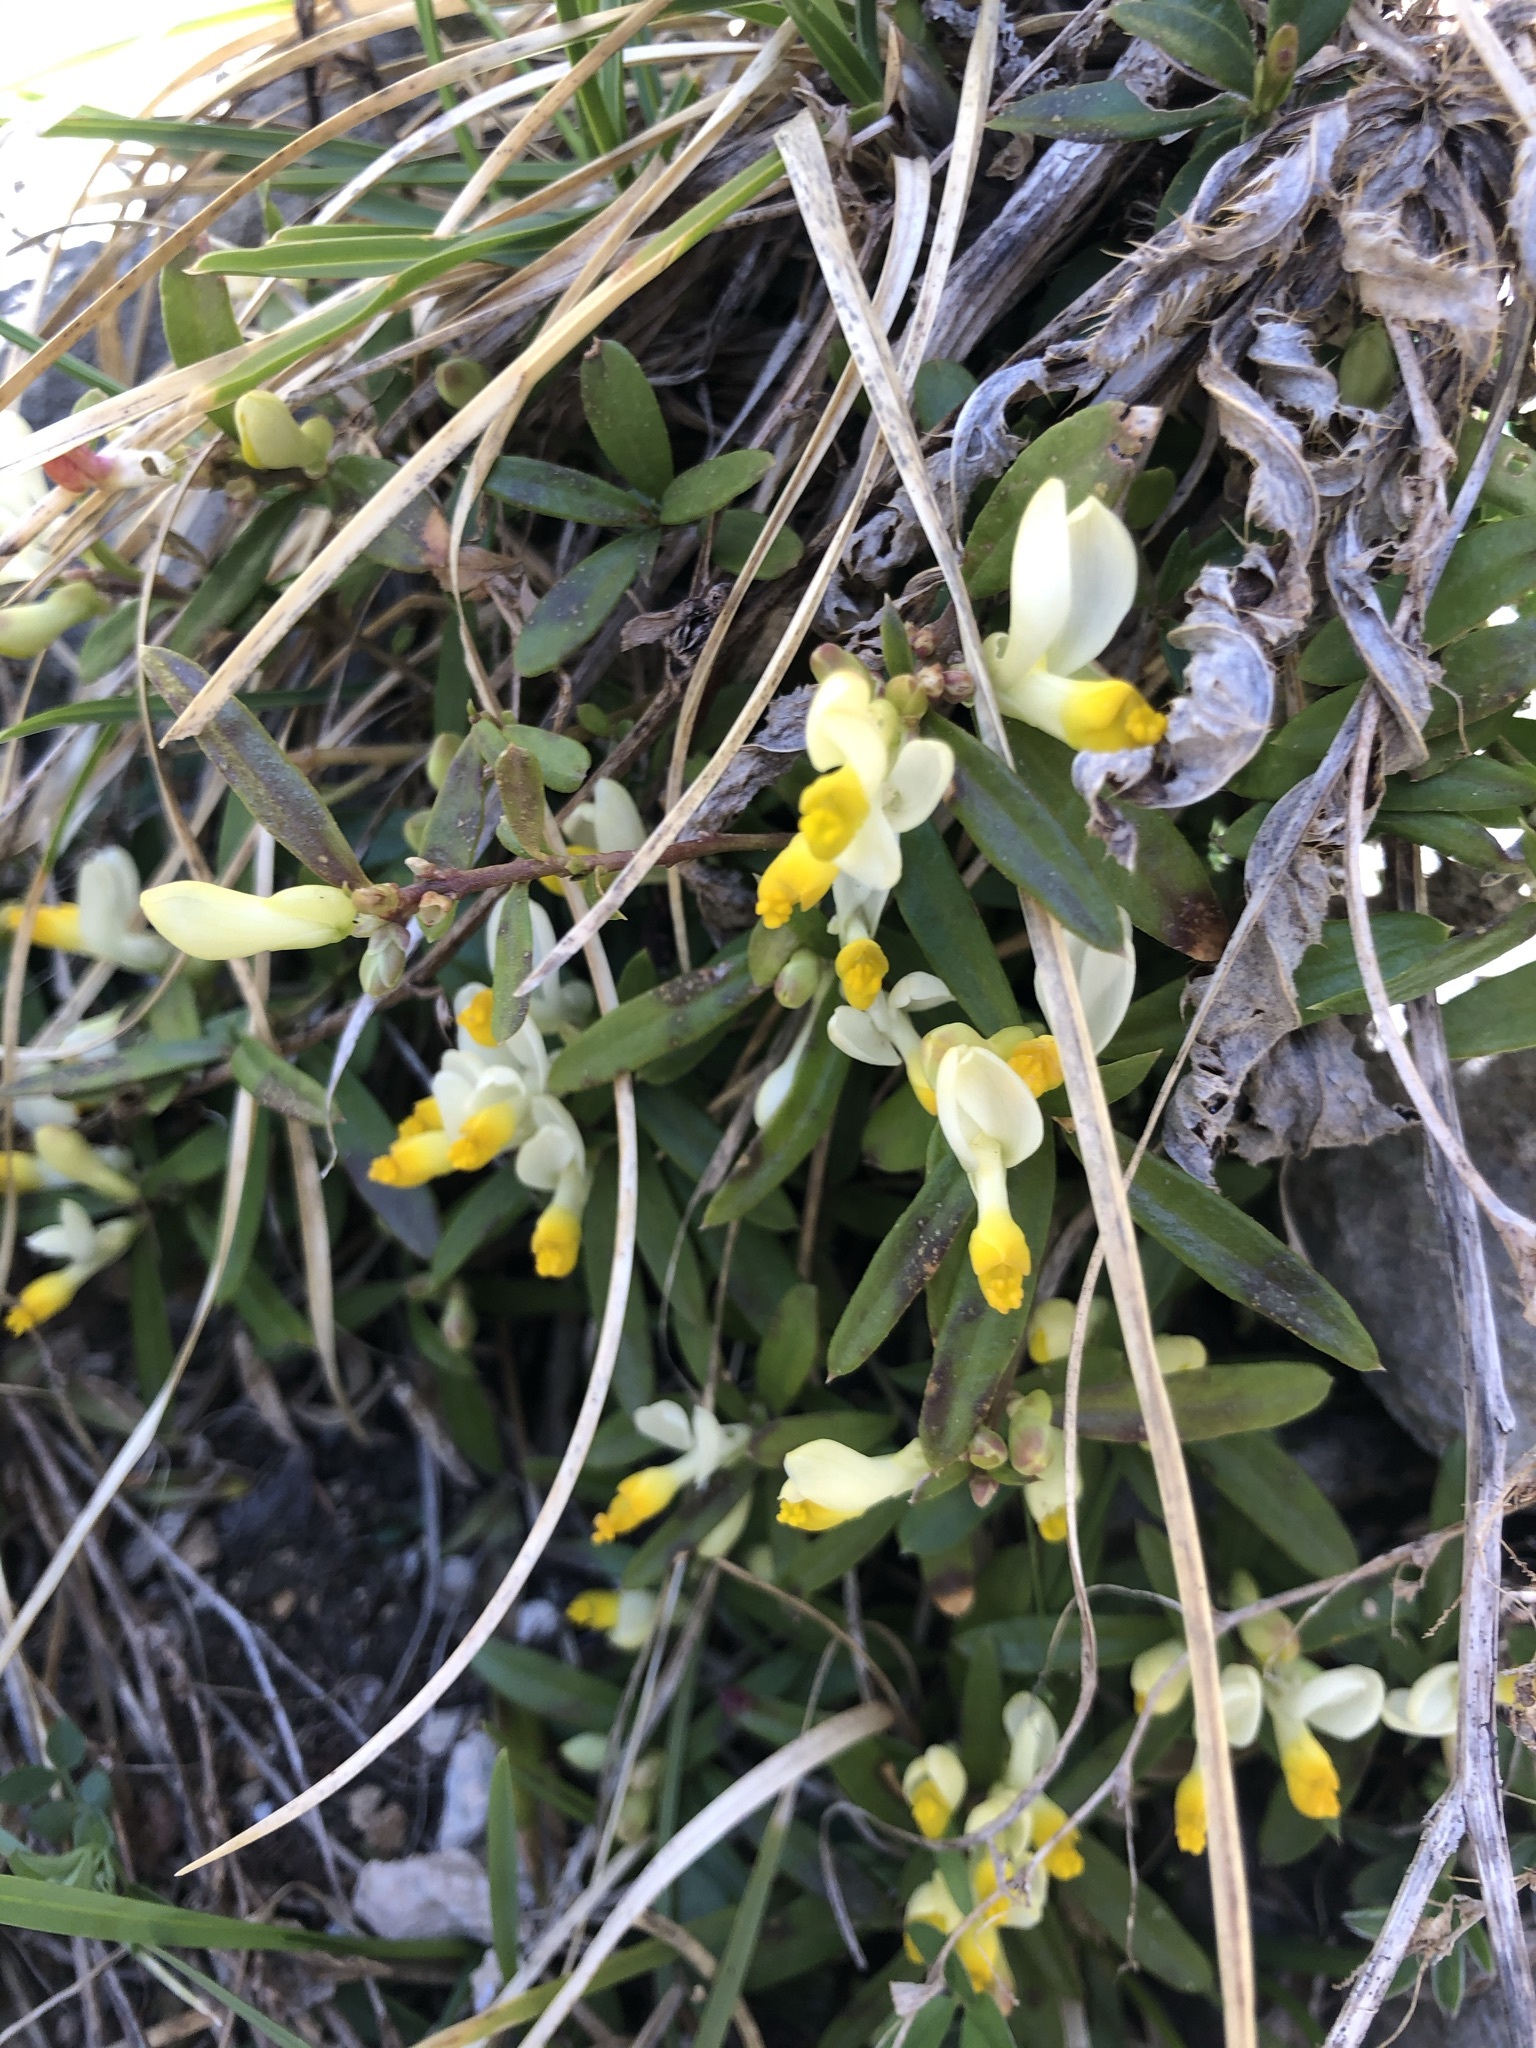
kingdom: Plantae
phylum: Tracheophyta
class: Magnoliopsida
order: Fabales
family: Polygalaceae
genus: Polygaloides
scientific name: Polygaloides chamaebuxus
